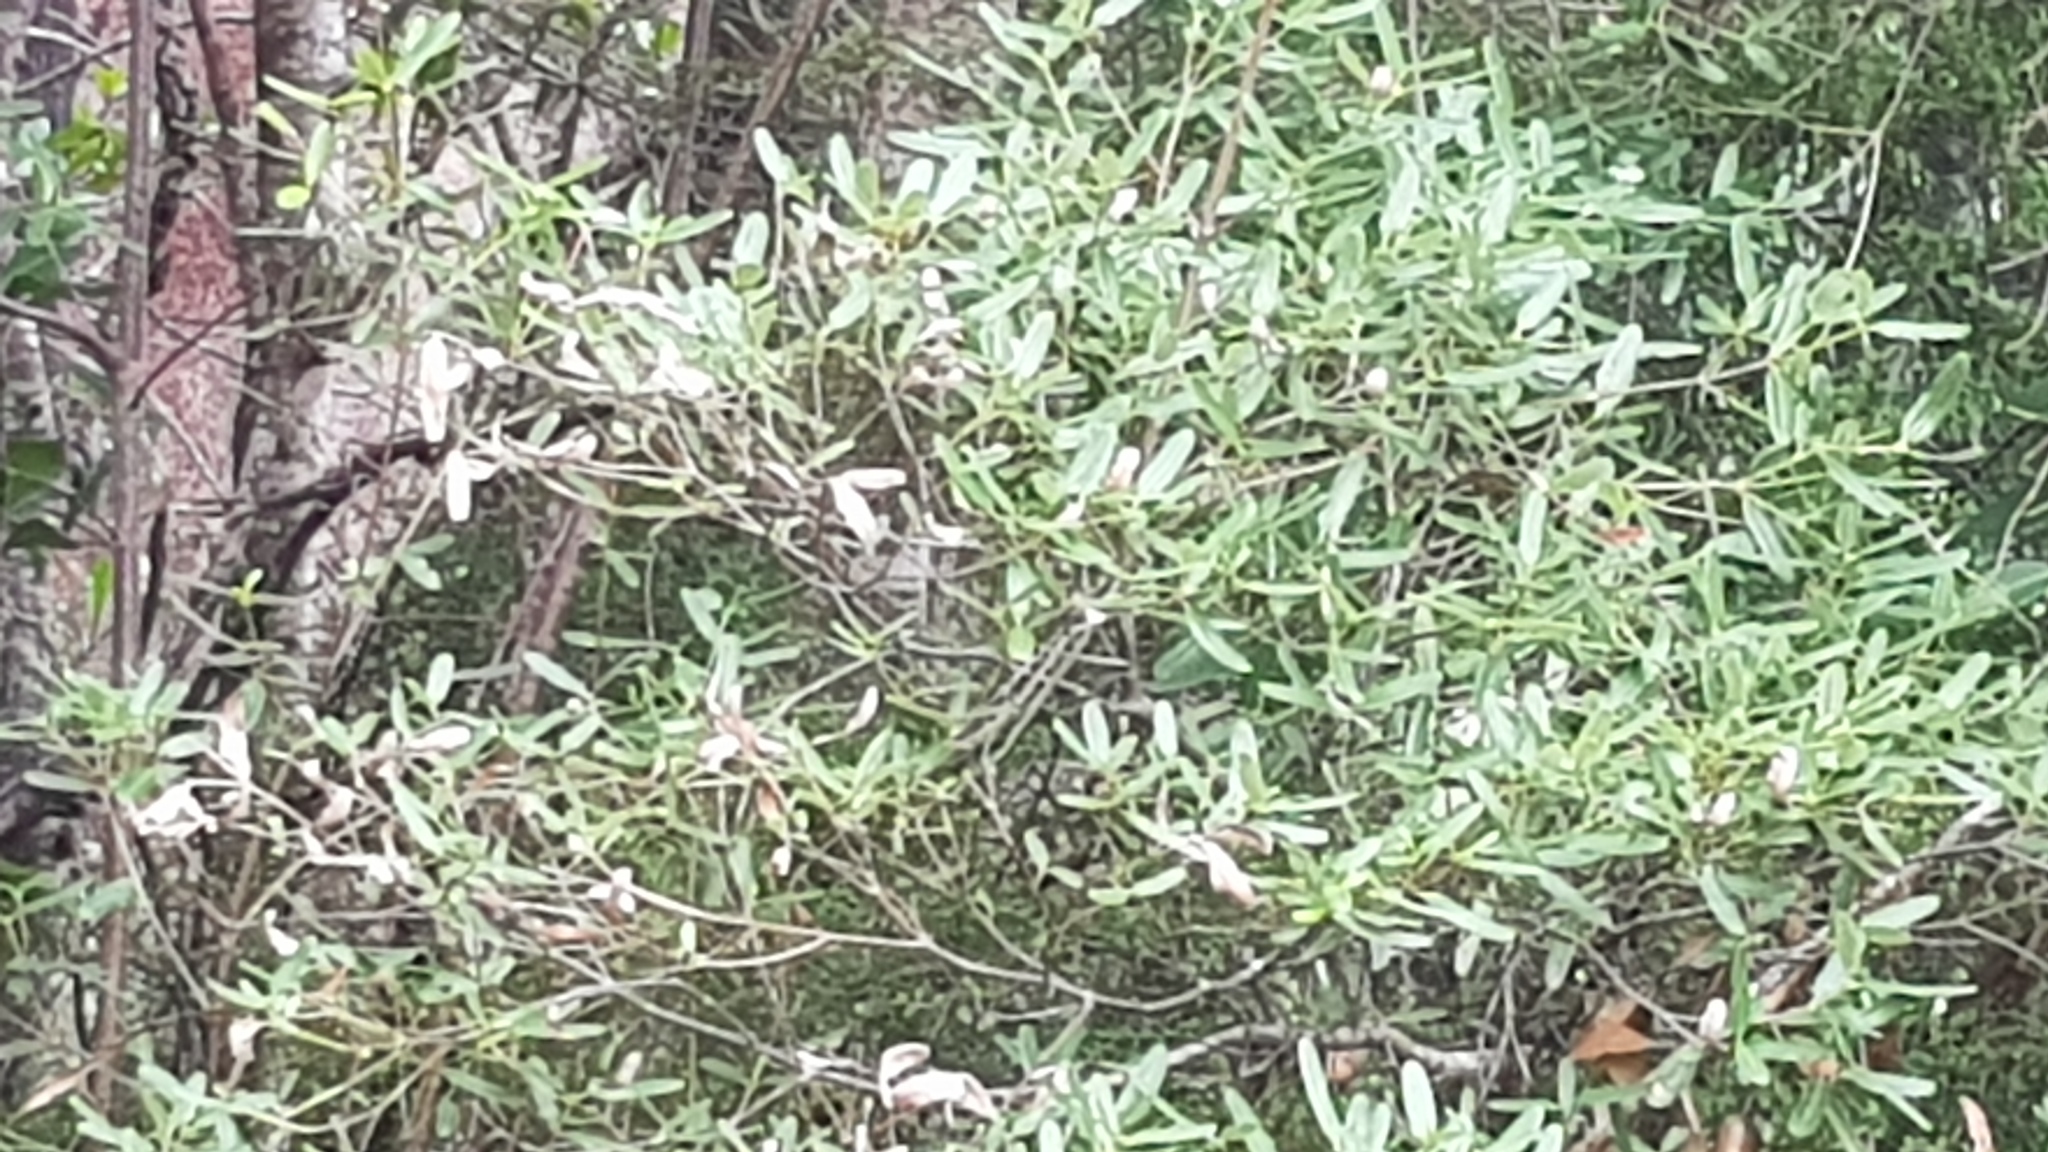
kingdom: Plantae
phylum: Tracheophyta
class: Magnoliopsida
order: Oxalidales
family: Cunoniaceae
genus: Eucryphia
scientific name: Eucryphia lucida
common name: Leatherwood
